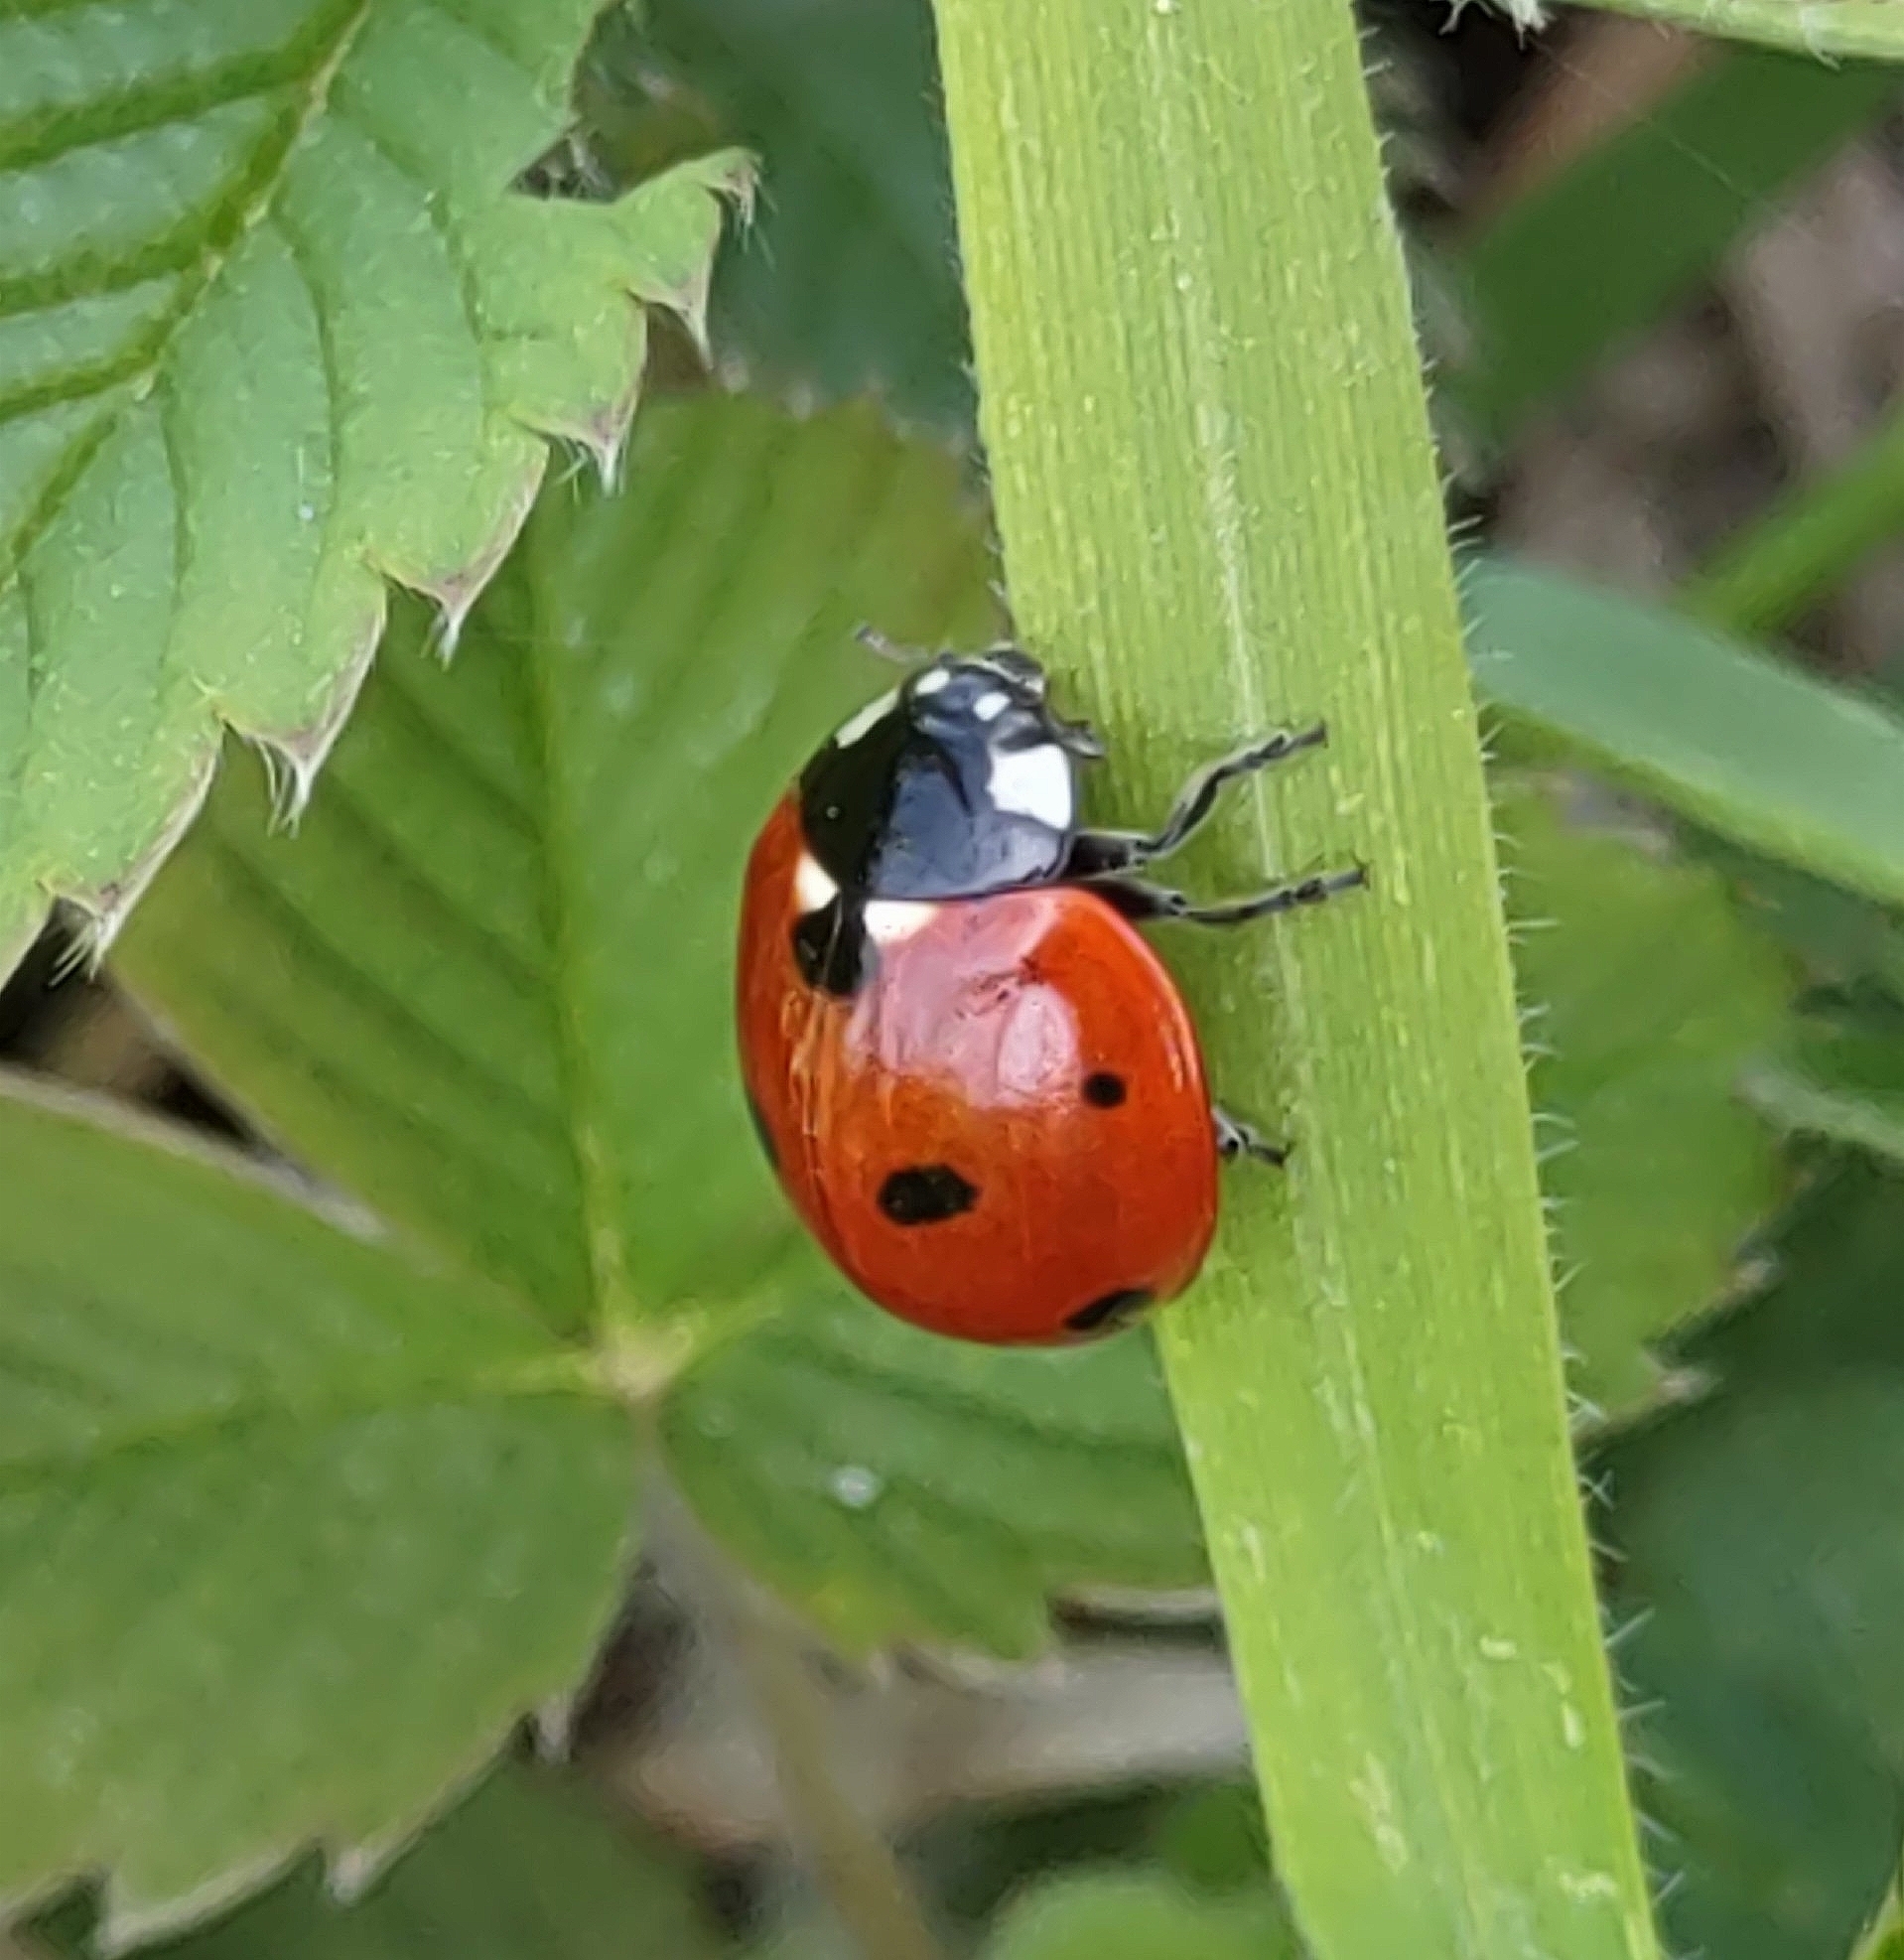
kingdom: Animalia
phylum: Arthropoda
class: Insecta
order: Coleoptera
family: Coccinellidae
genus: Coccinella
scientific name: Coccinella septempunctata
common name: Sevenspotted lady beetle
